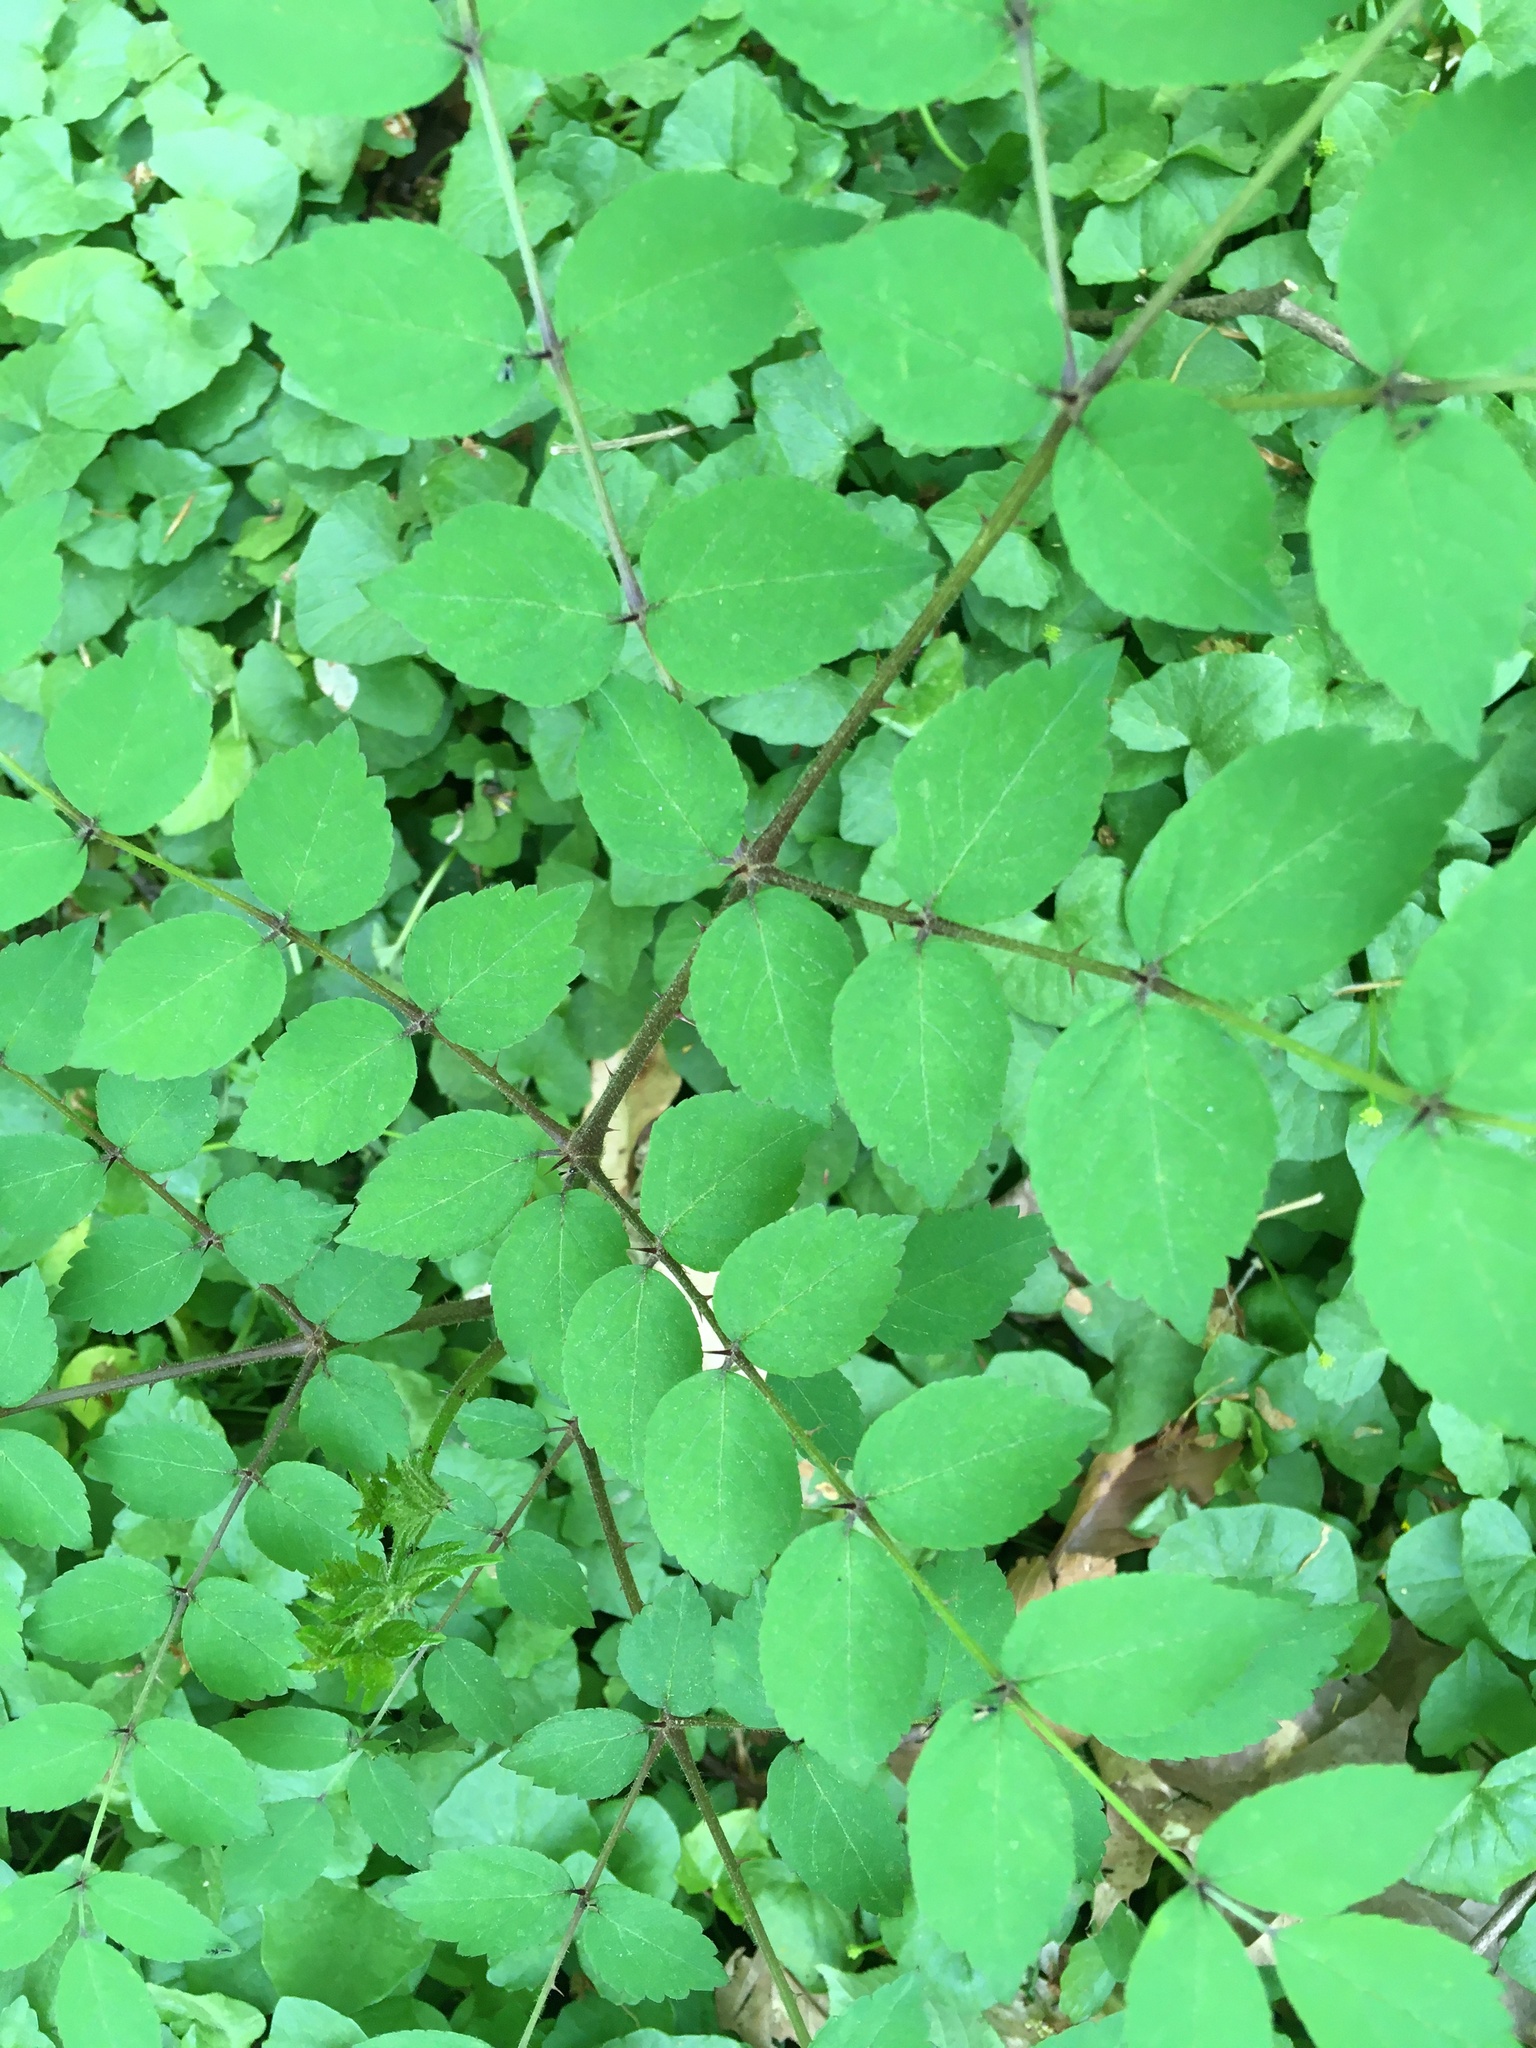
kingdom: Plantae
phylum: Tracheophyta
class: Magnoliopsida
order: Apiales
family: Araliaceae
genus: Aralia
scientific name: Aralia elata
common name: Japanese angelica-tree
